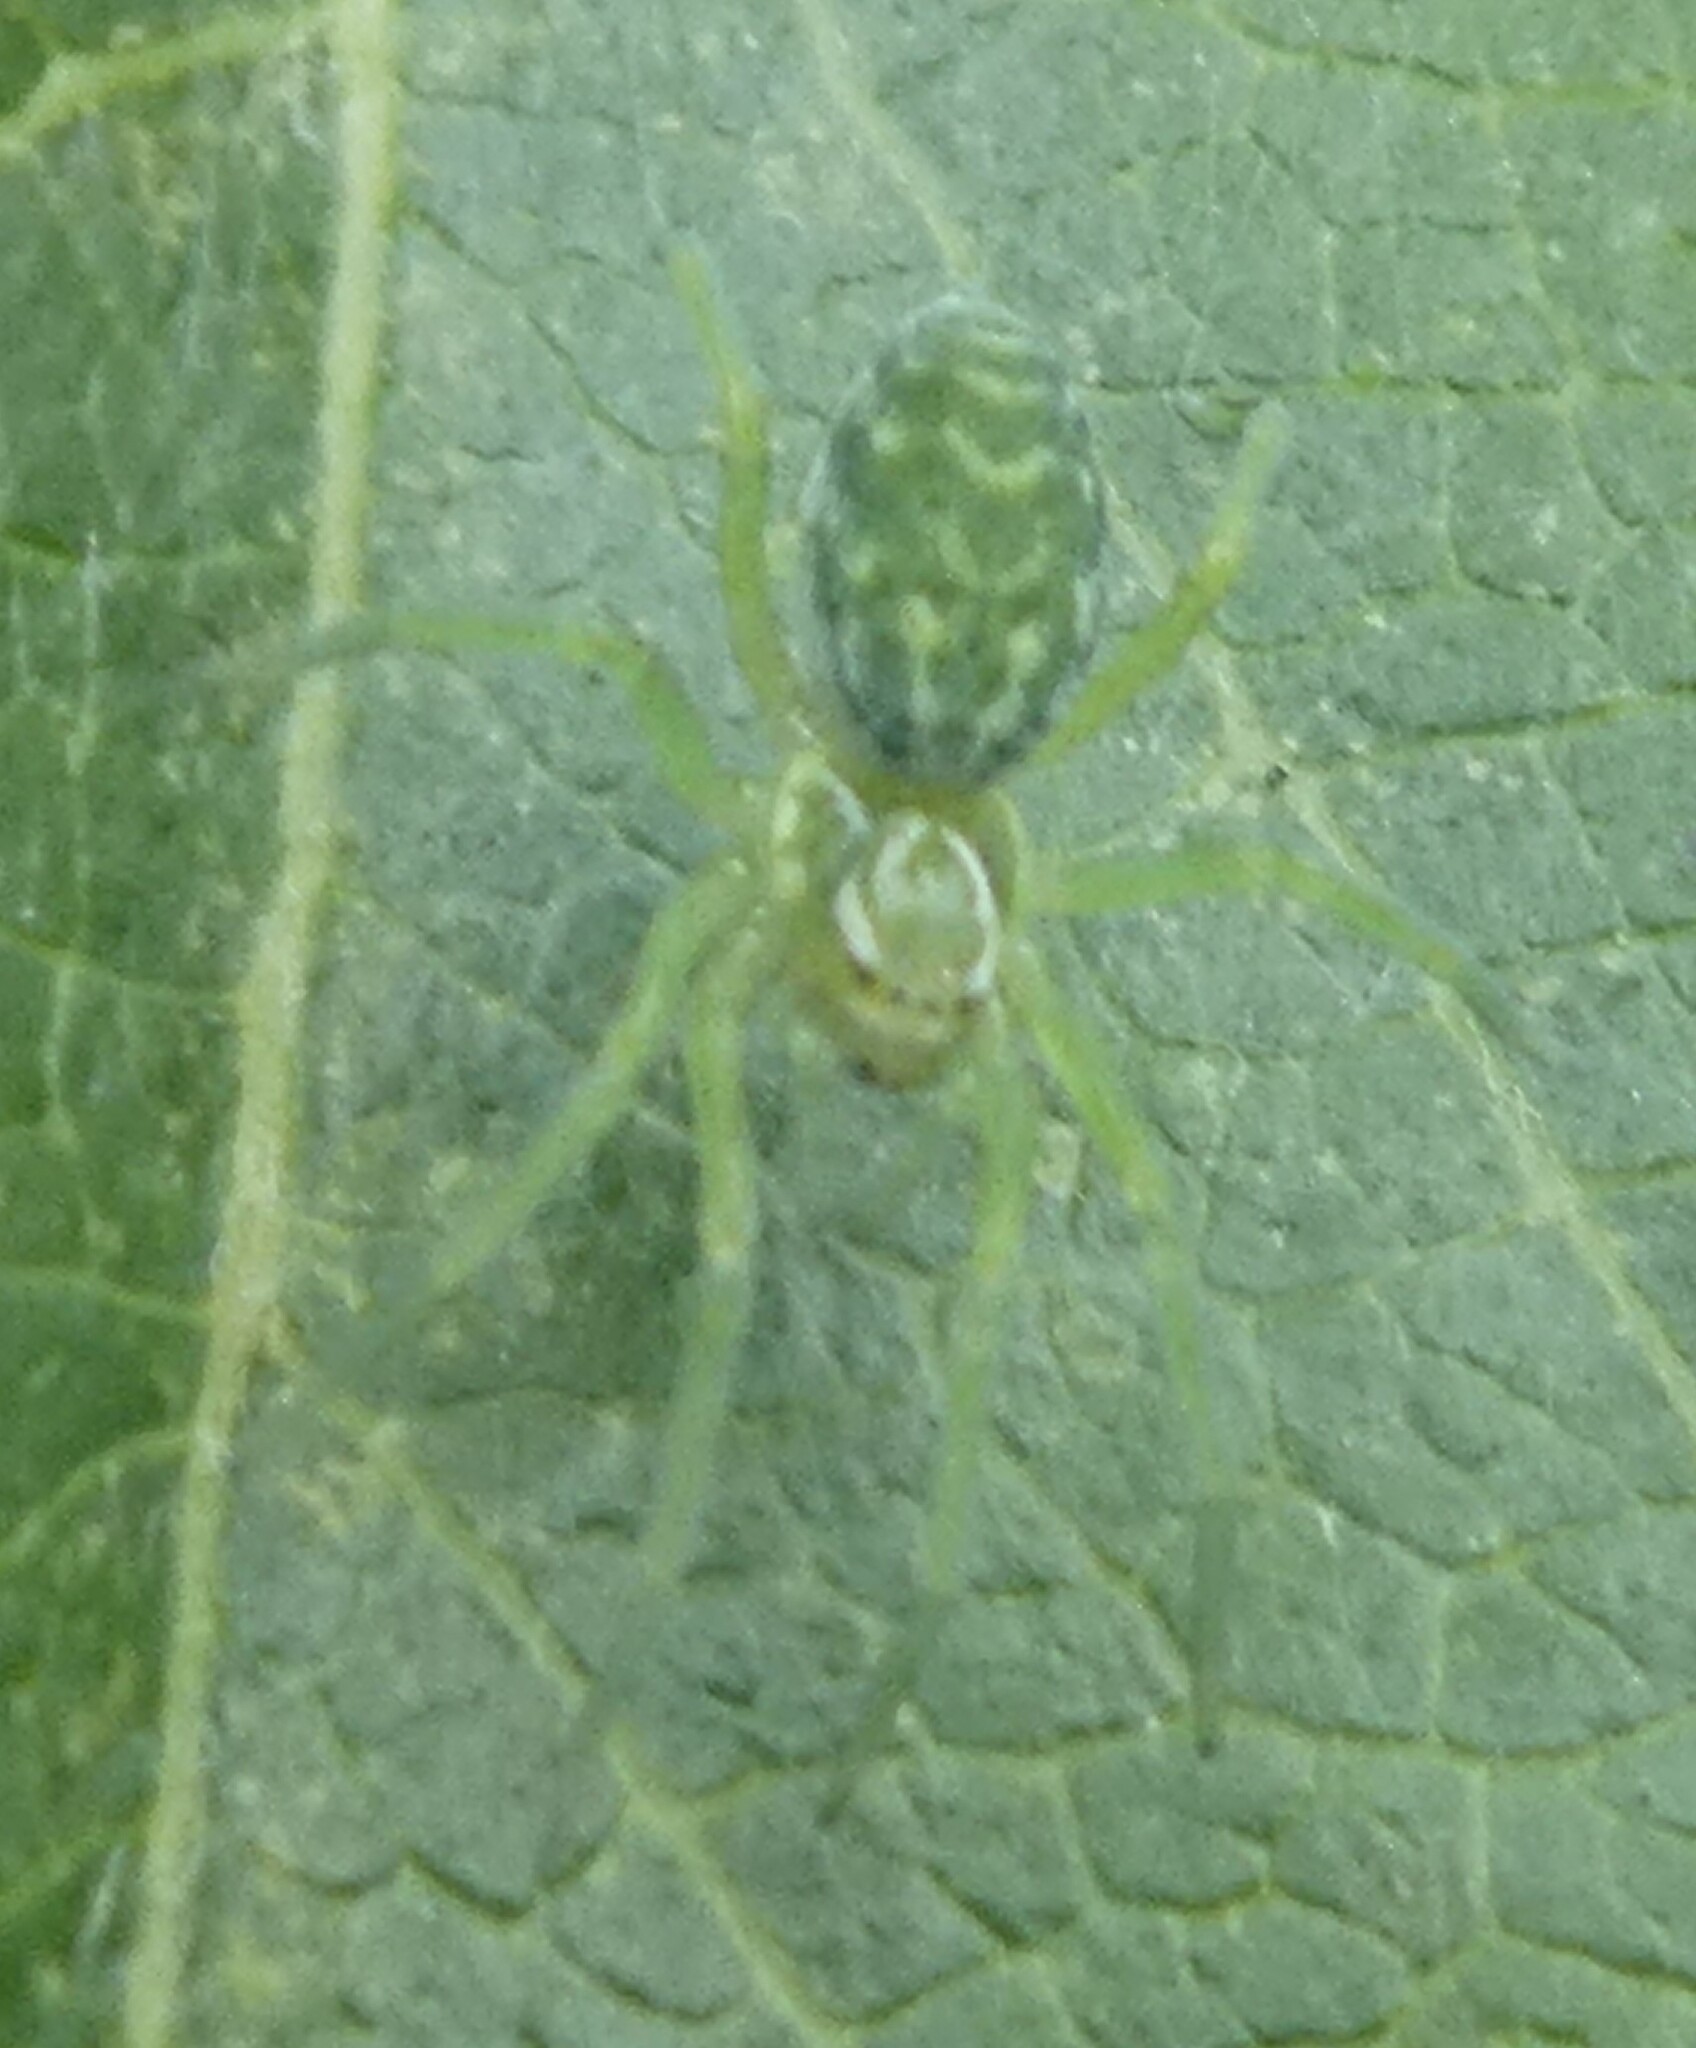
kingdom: Animalia
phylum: Arthropoda
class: Arachnida
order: Araneae
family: Dictynidae
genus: Nigma
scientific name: Nigma walckenaeri
